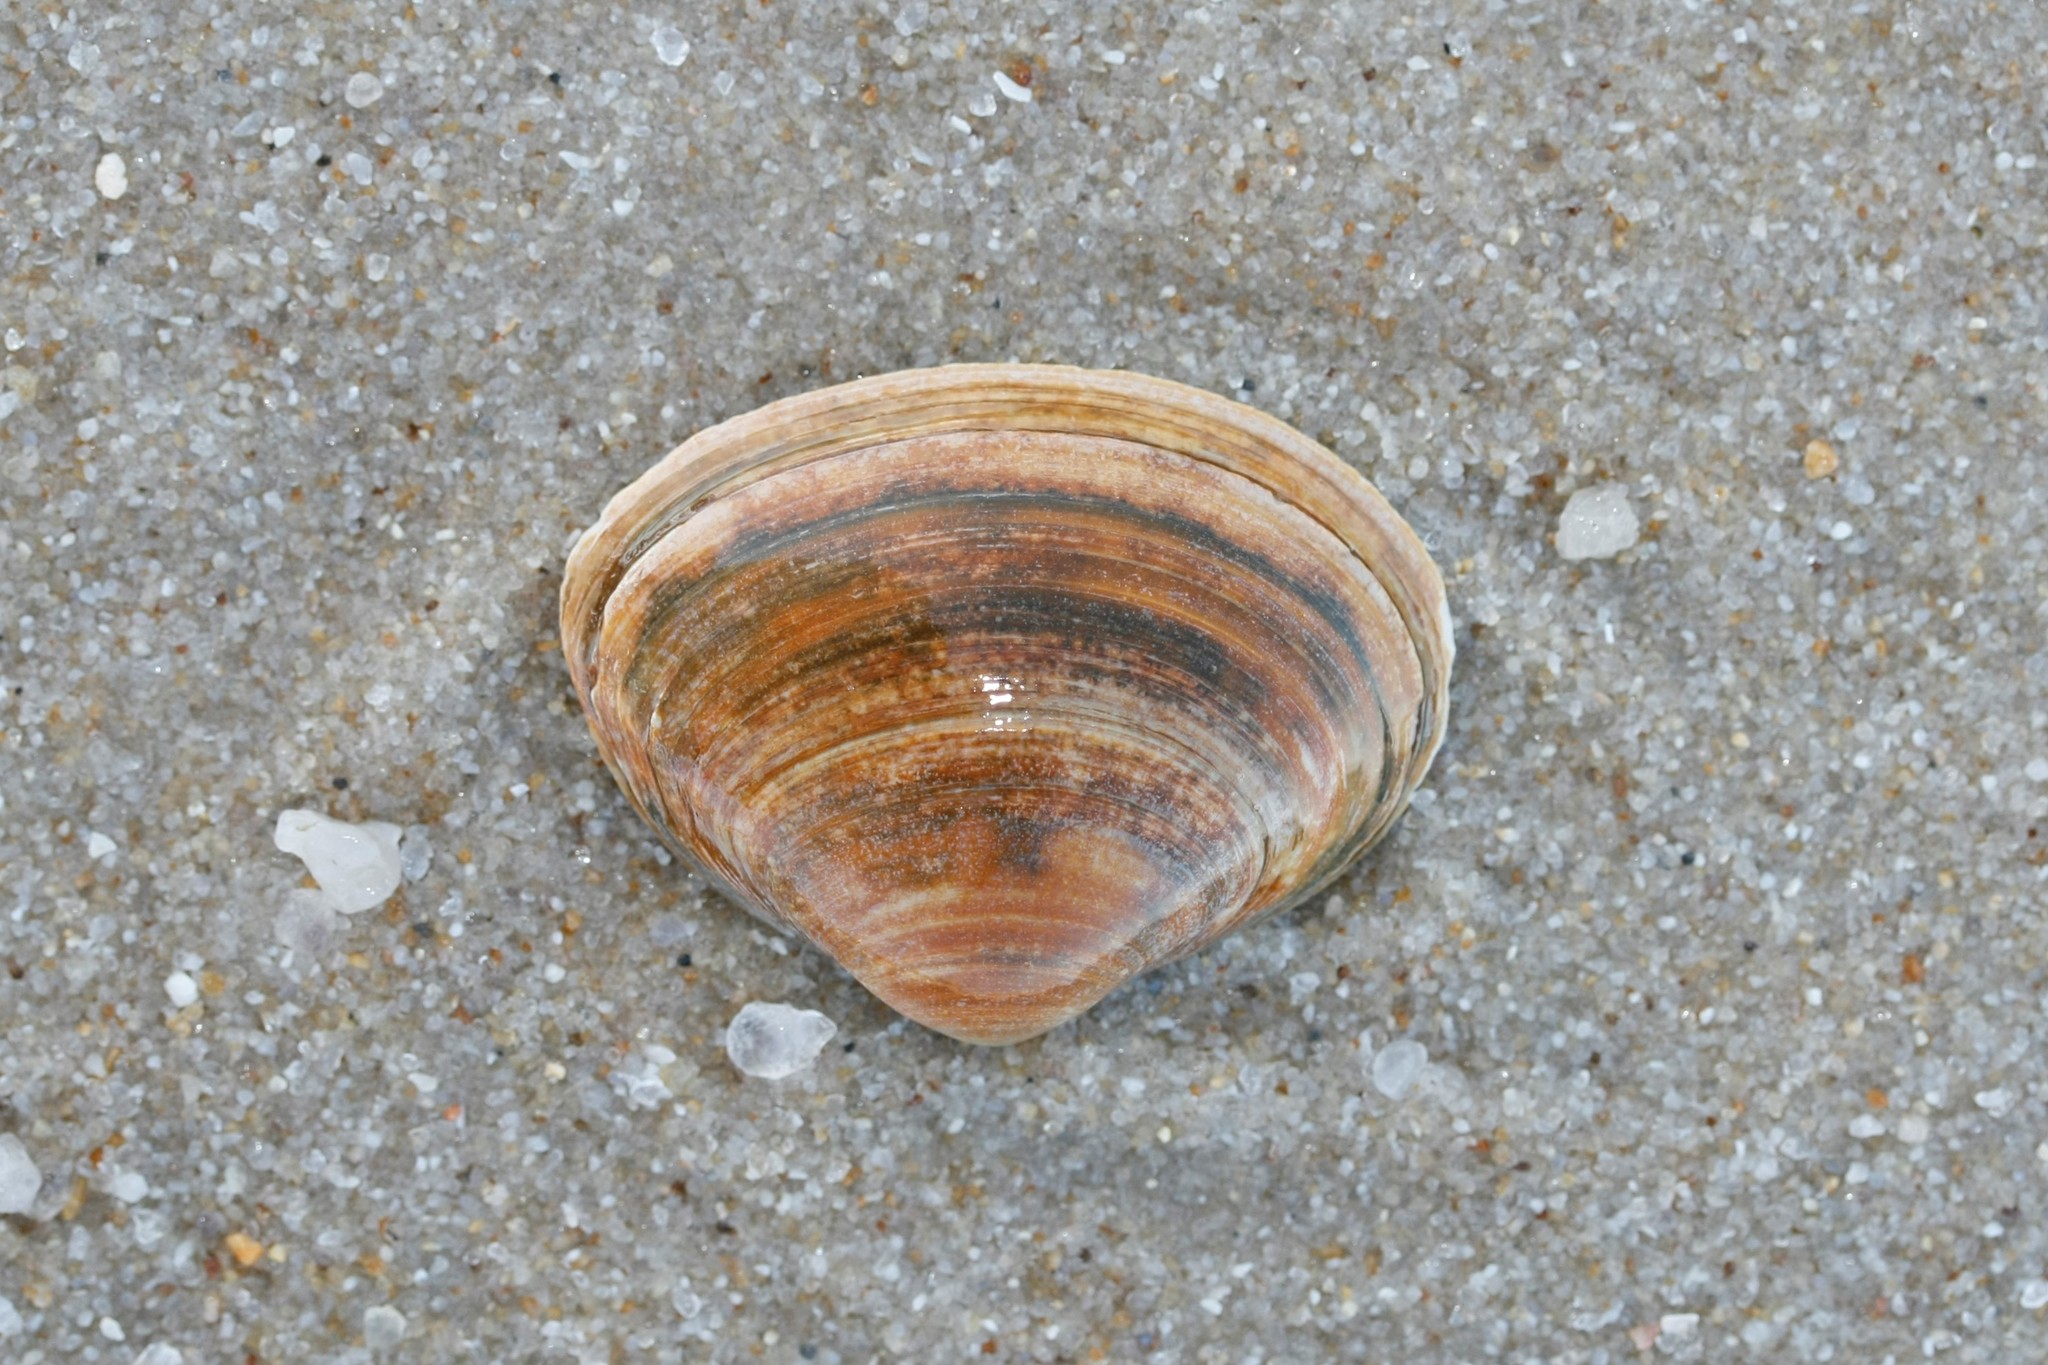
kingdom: Animalia
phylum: Mollusca
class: Bivalvia
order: Venerida
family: Mactridae
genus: Spisula
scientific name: Spisula solida
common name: Thick trough shell
